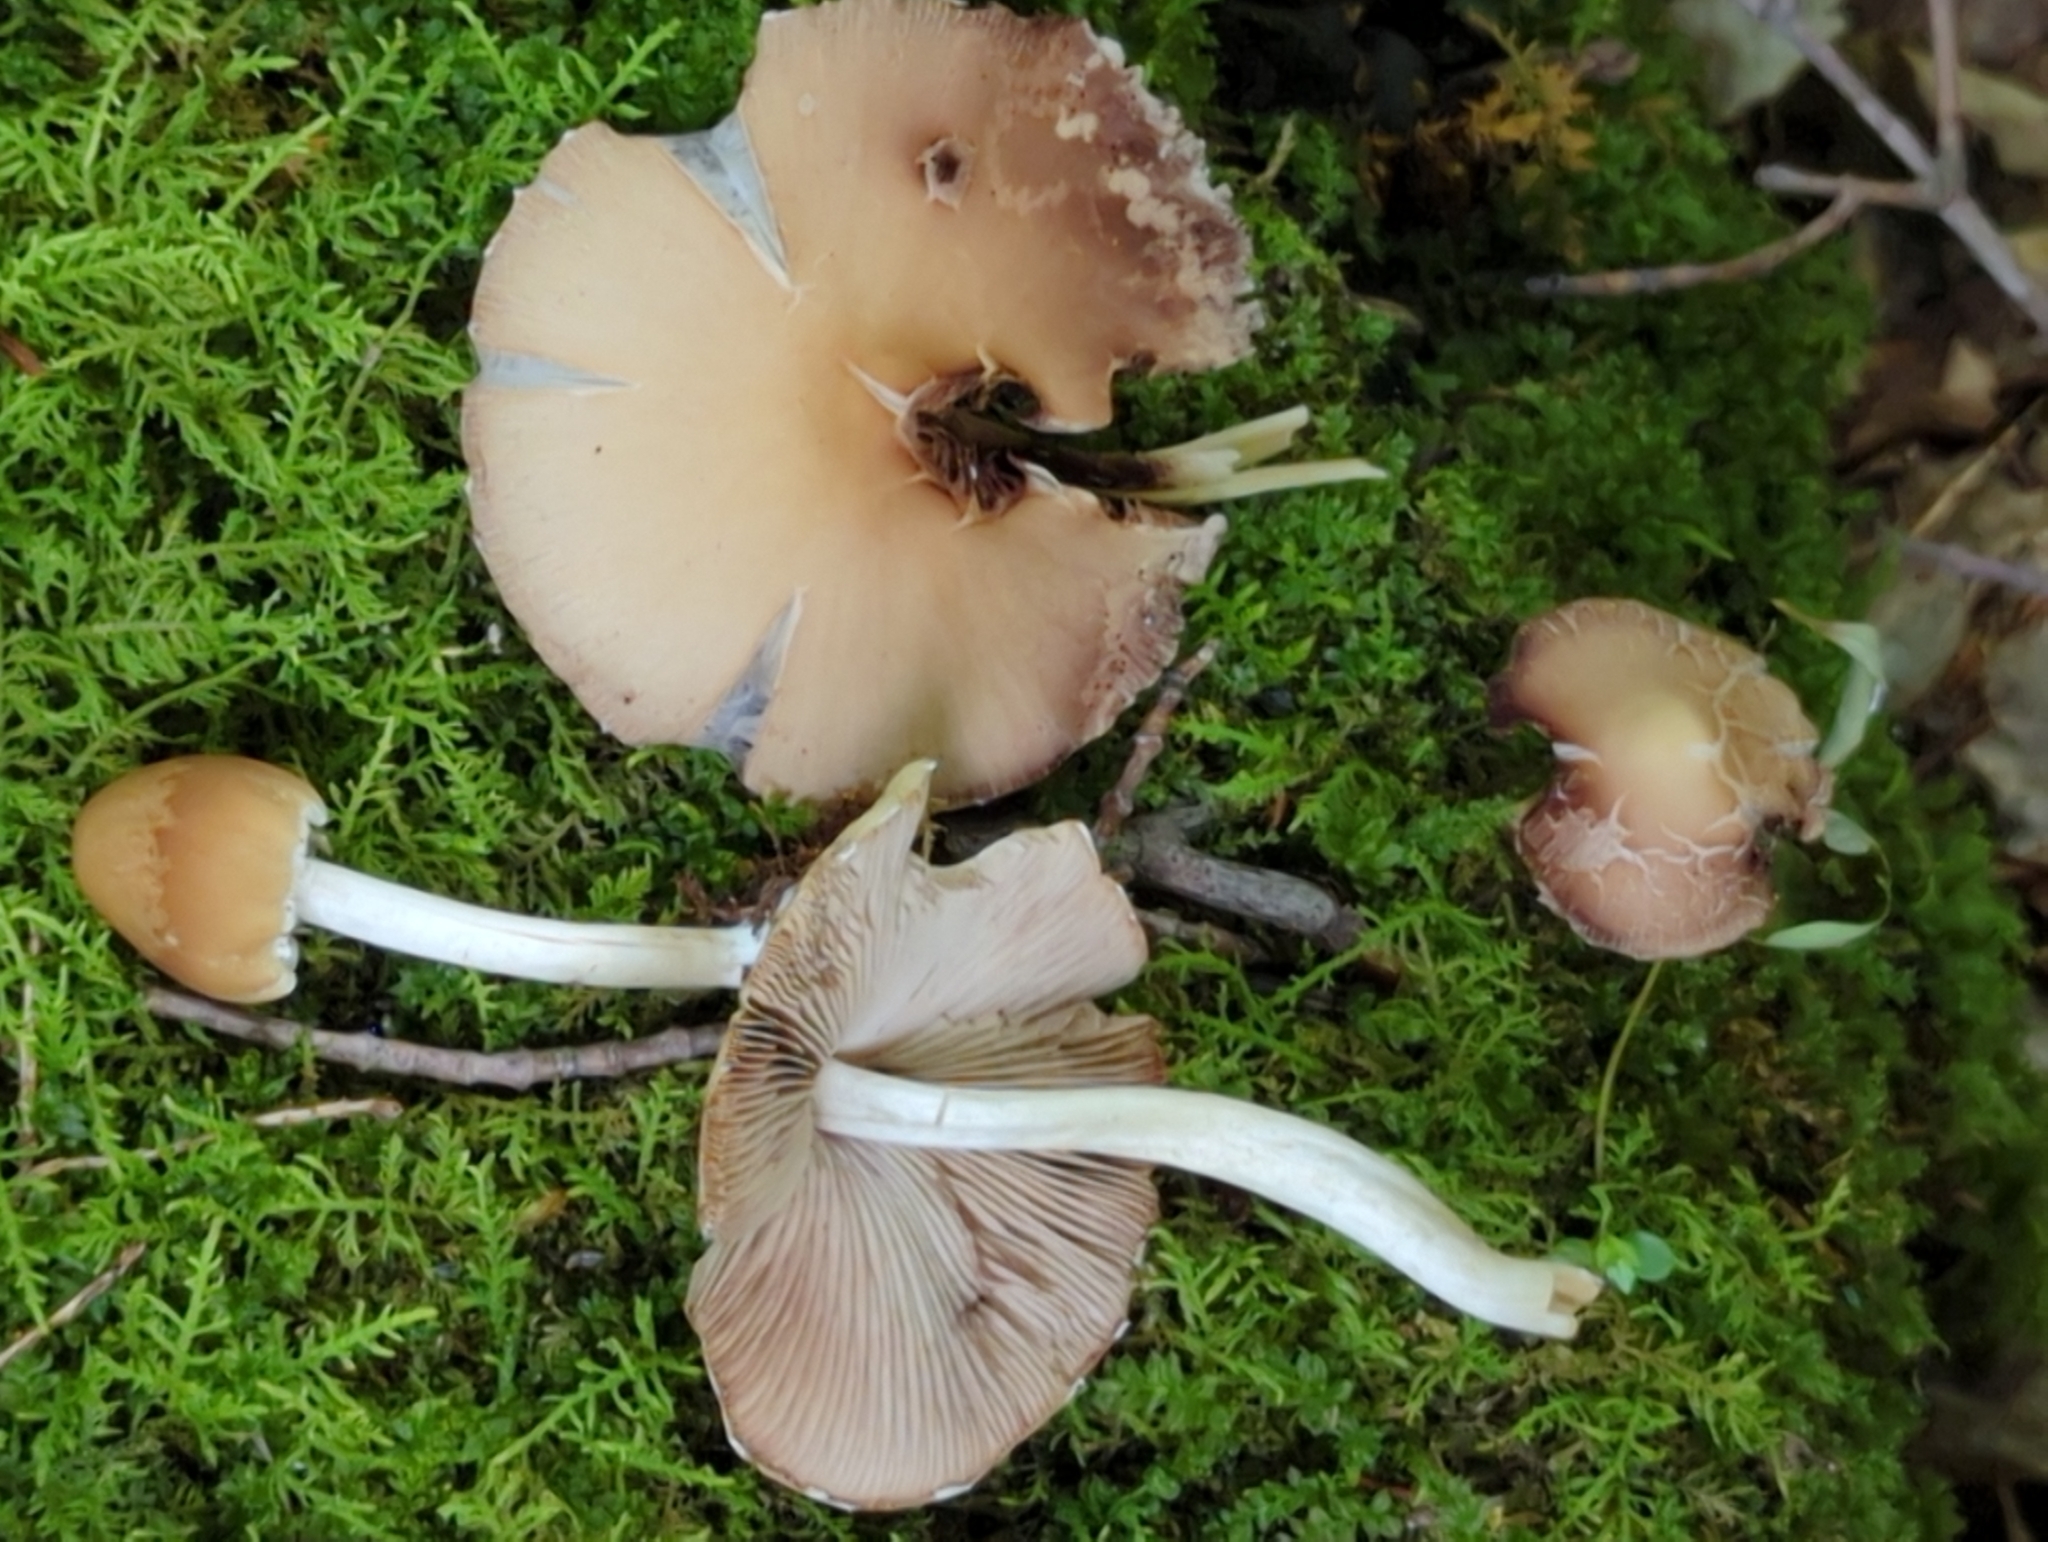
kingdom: Fungi
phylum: Basidiomycota
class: Agaricomycetes
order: Agaricales
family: Psathyrellaceae
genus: Candolleomyces
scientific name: Candolleomyces candolleanus
